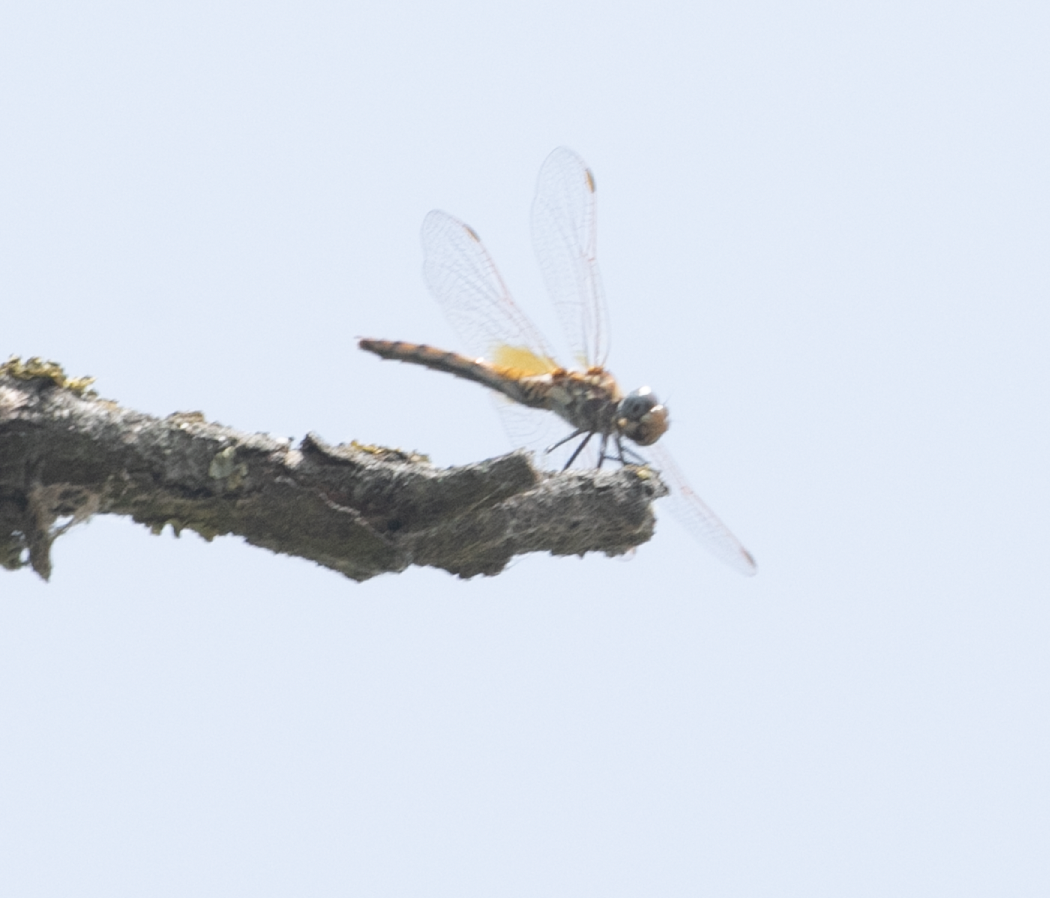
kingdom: Animalia
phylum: Arthropoda
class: Insecta
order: Odonata
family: Libellulidae
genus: Trithemis
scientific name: Trithemis annulata
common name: Violet dropwing
